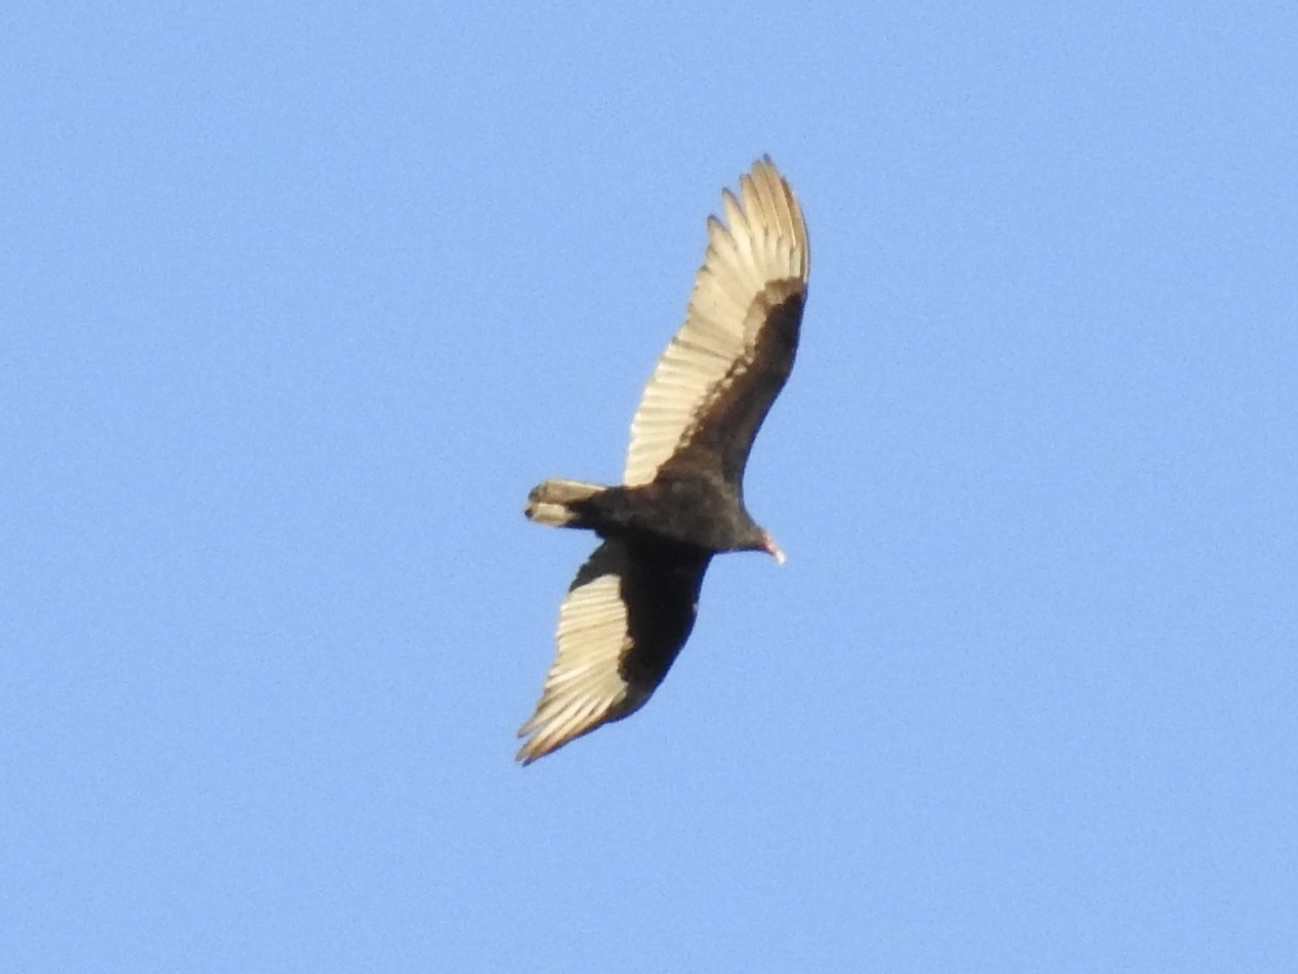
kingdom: Animalia
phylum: Chordata
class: Aves
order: Accipitriformes
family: Cathartidae
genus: Cathartes
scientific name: Cathartes aura
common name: Turkey vulture
